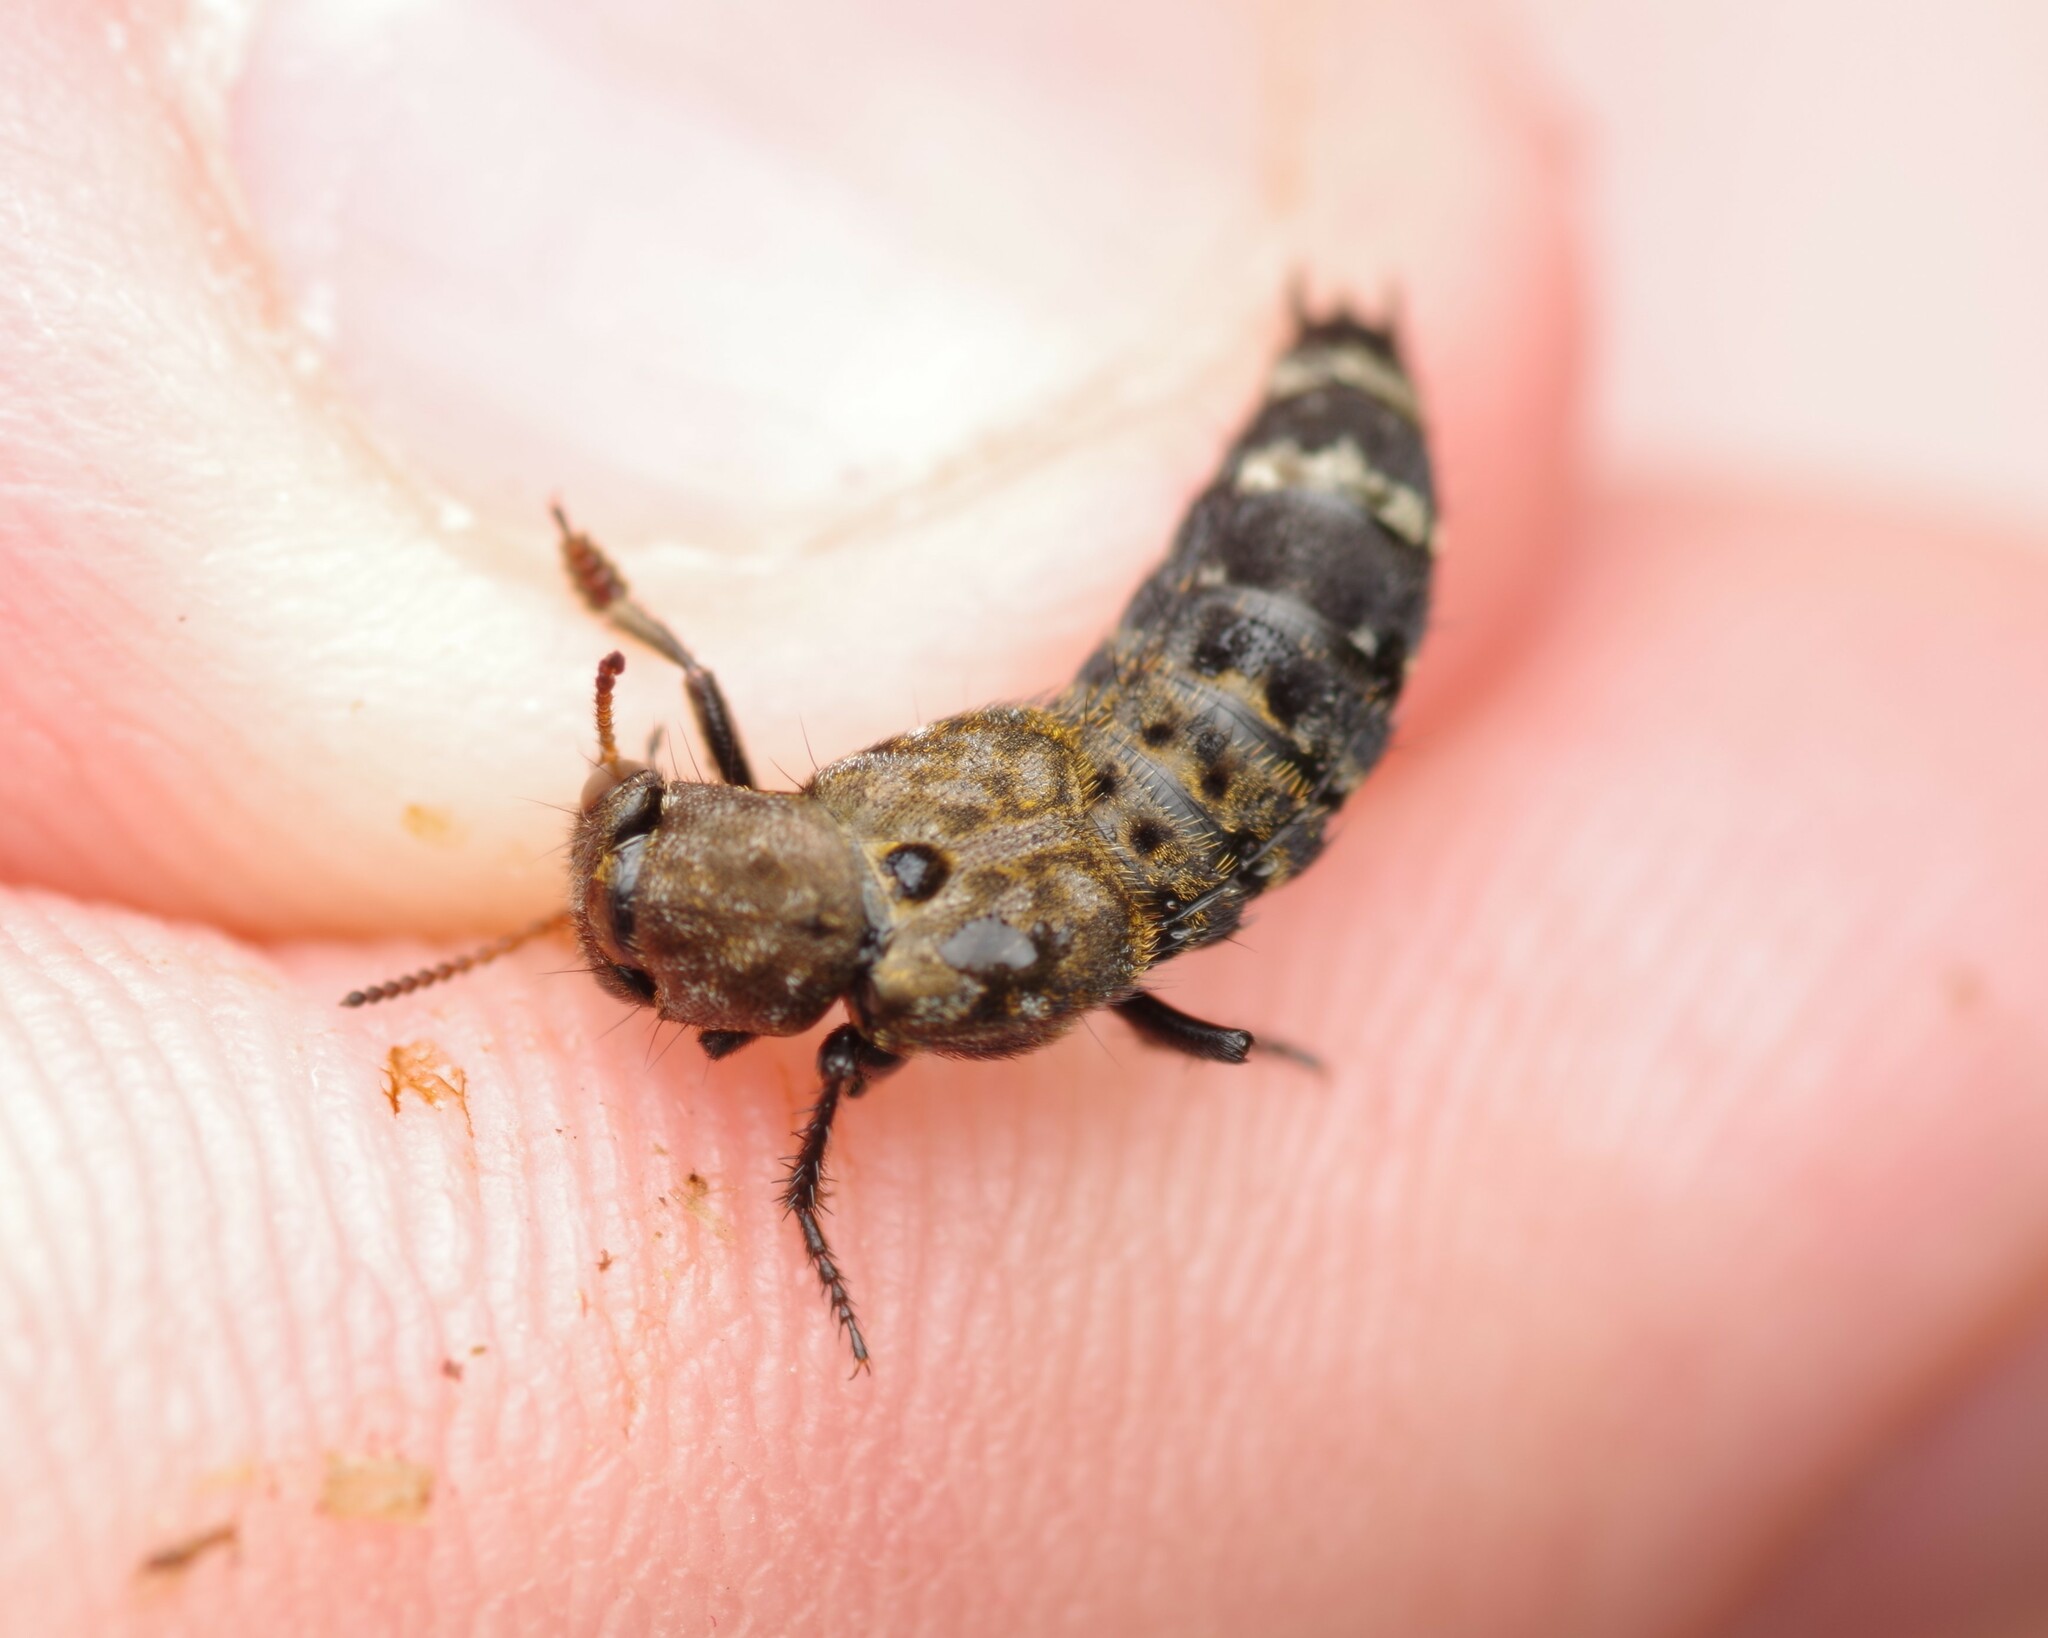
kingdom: Animalia
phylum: Arthropoda
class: Insecta
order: Coleoptera
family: Staphylinidae
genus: Ontholestes
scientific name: Ontholestes murinus
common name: Staph beetle
